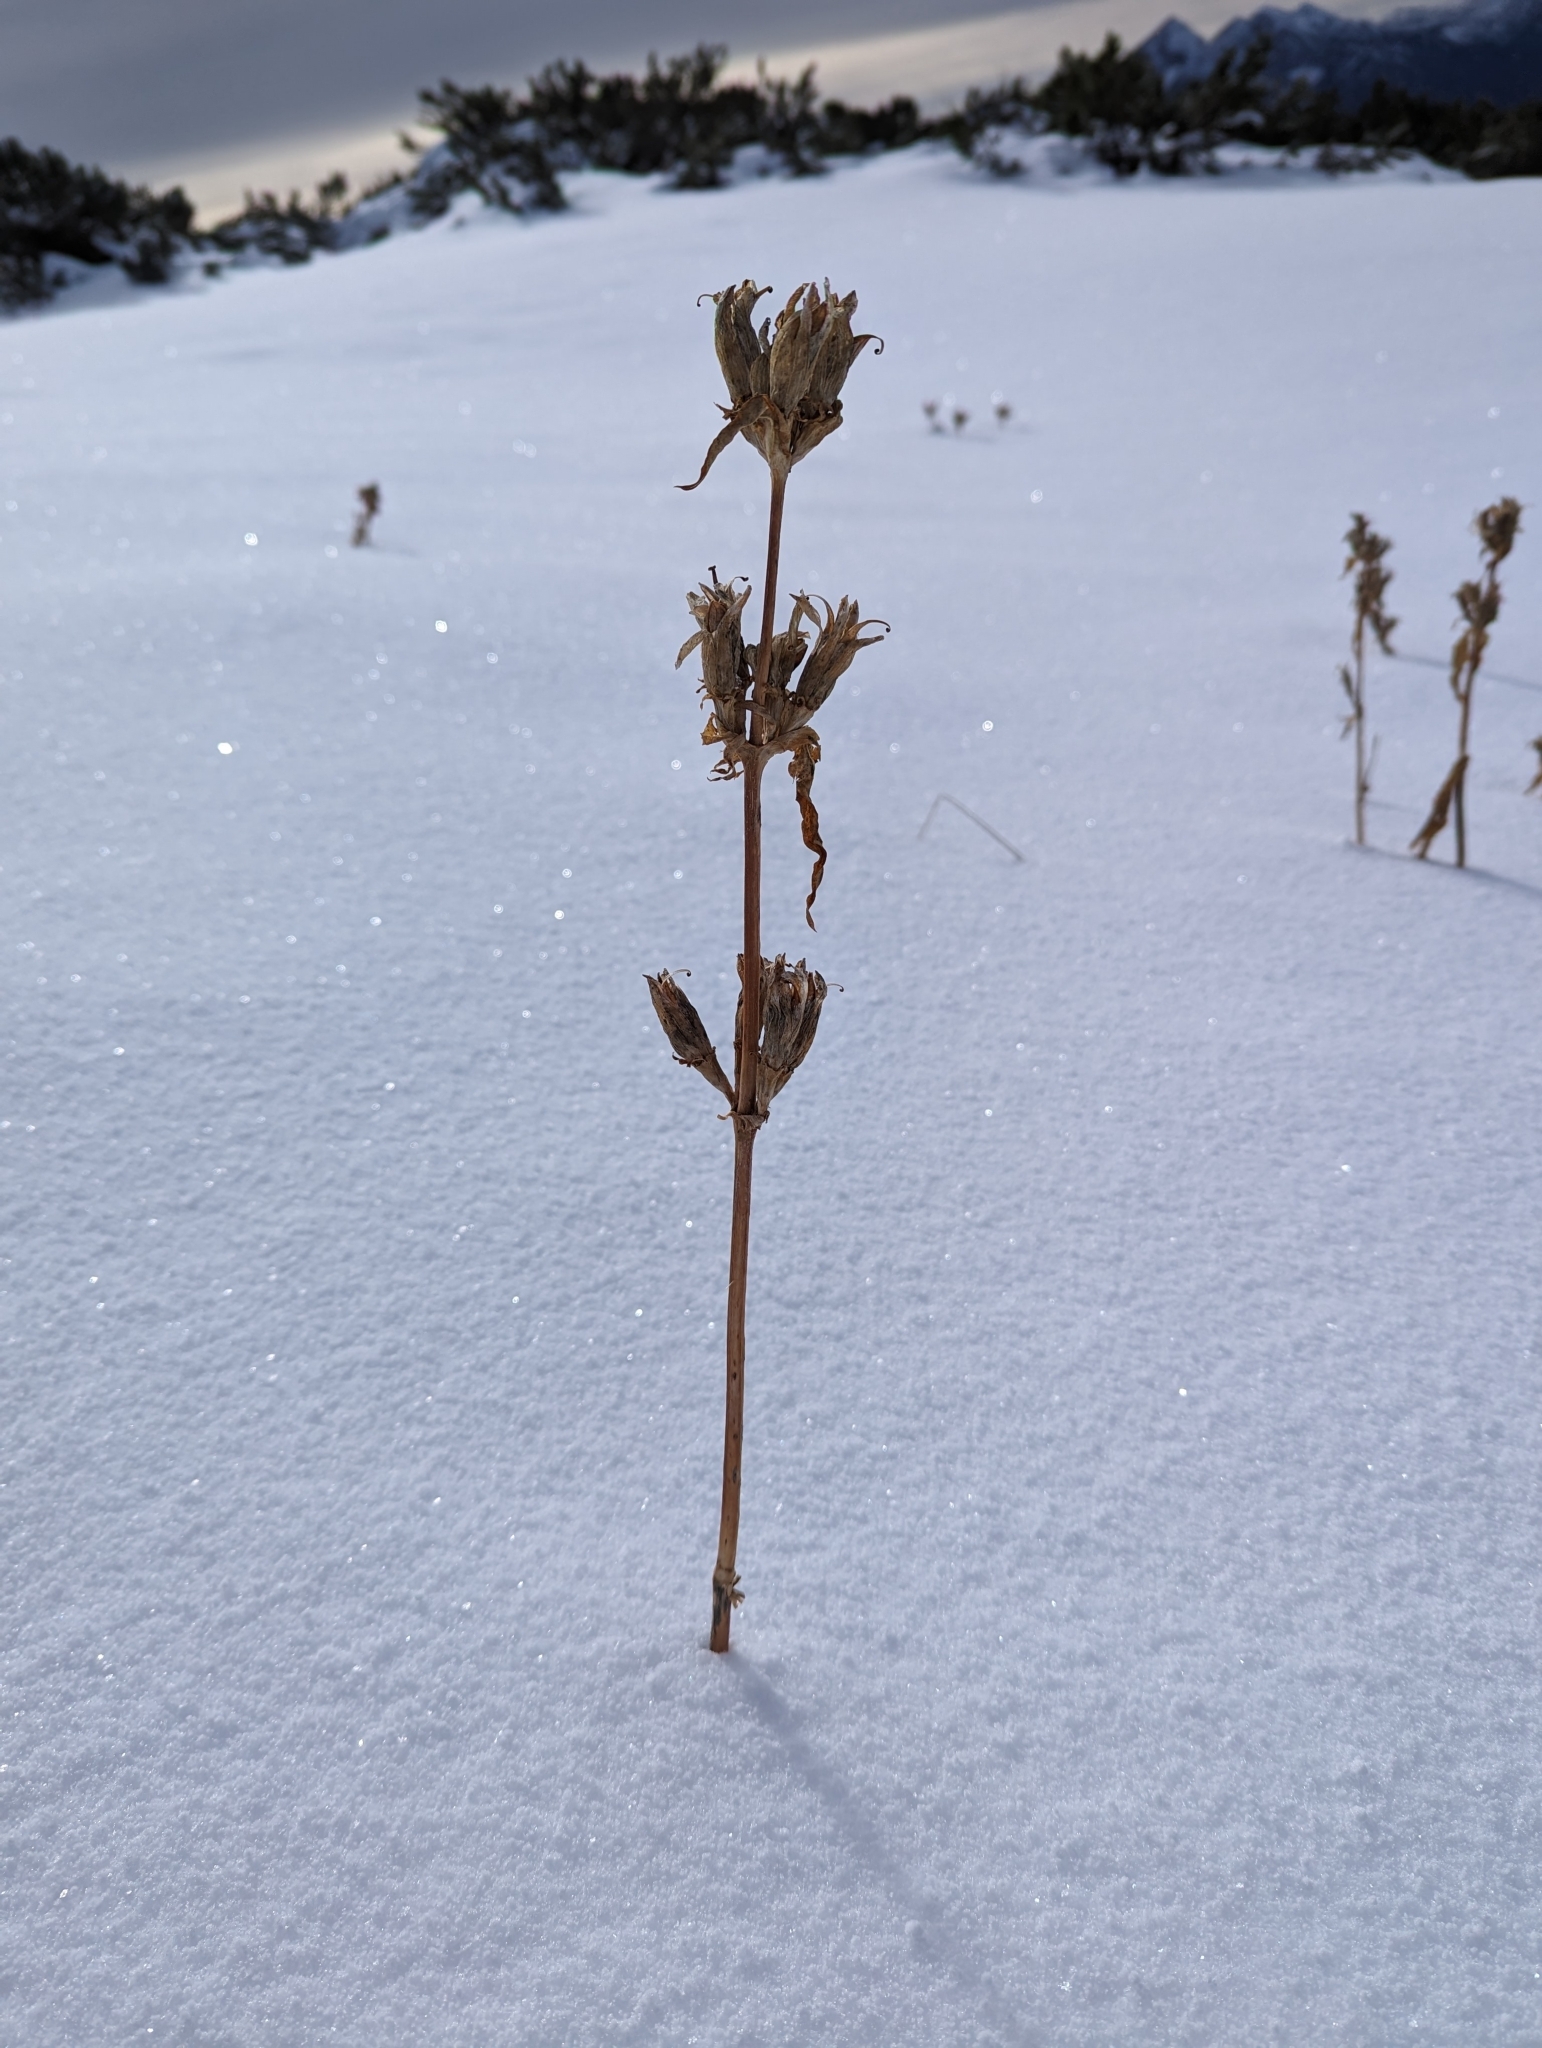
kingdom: Plantae
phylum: Tracheophyta
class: Magnoliopsida
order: Gentianales
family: Gentianaceae
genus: Gentiana
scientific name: Gentiana pannonica
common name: Hungarian gentian
